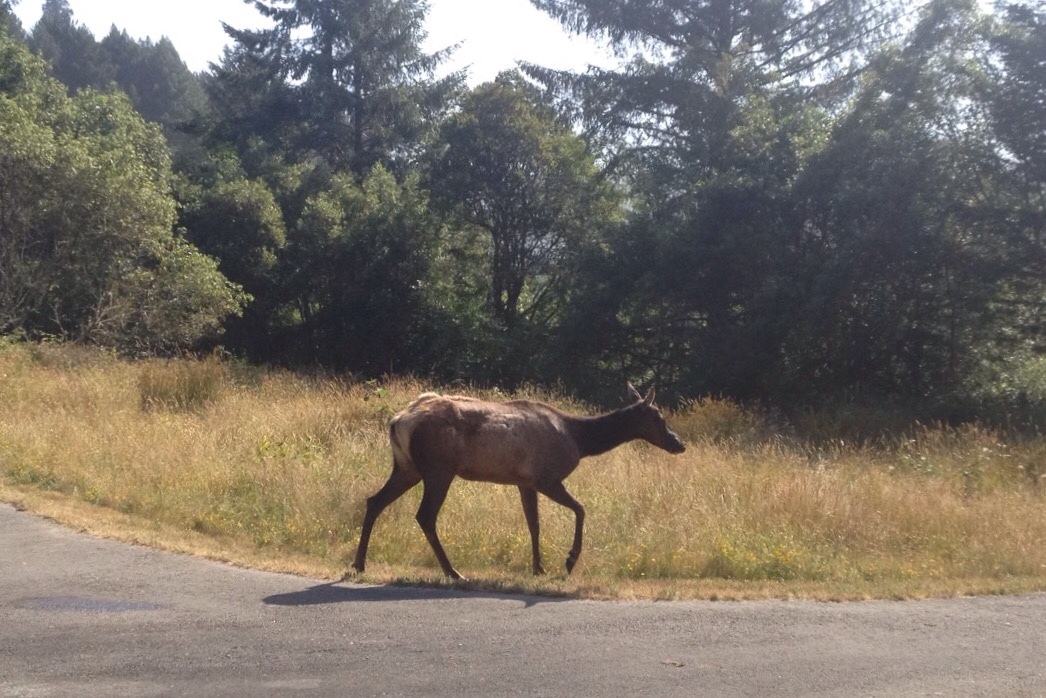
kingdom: Animalia
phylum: Chordata
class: Mammalia
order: Artiodactyla
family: Cervidae
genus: Cervus
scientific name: Cervus elaphus
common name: Red deer
